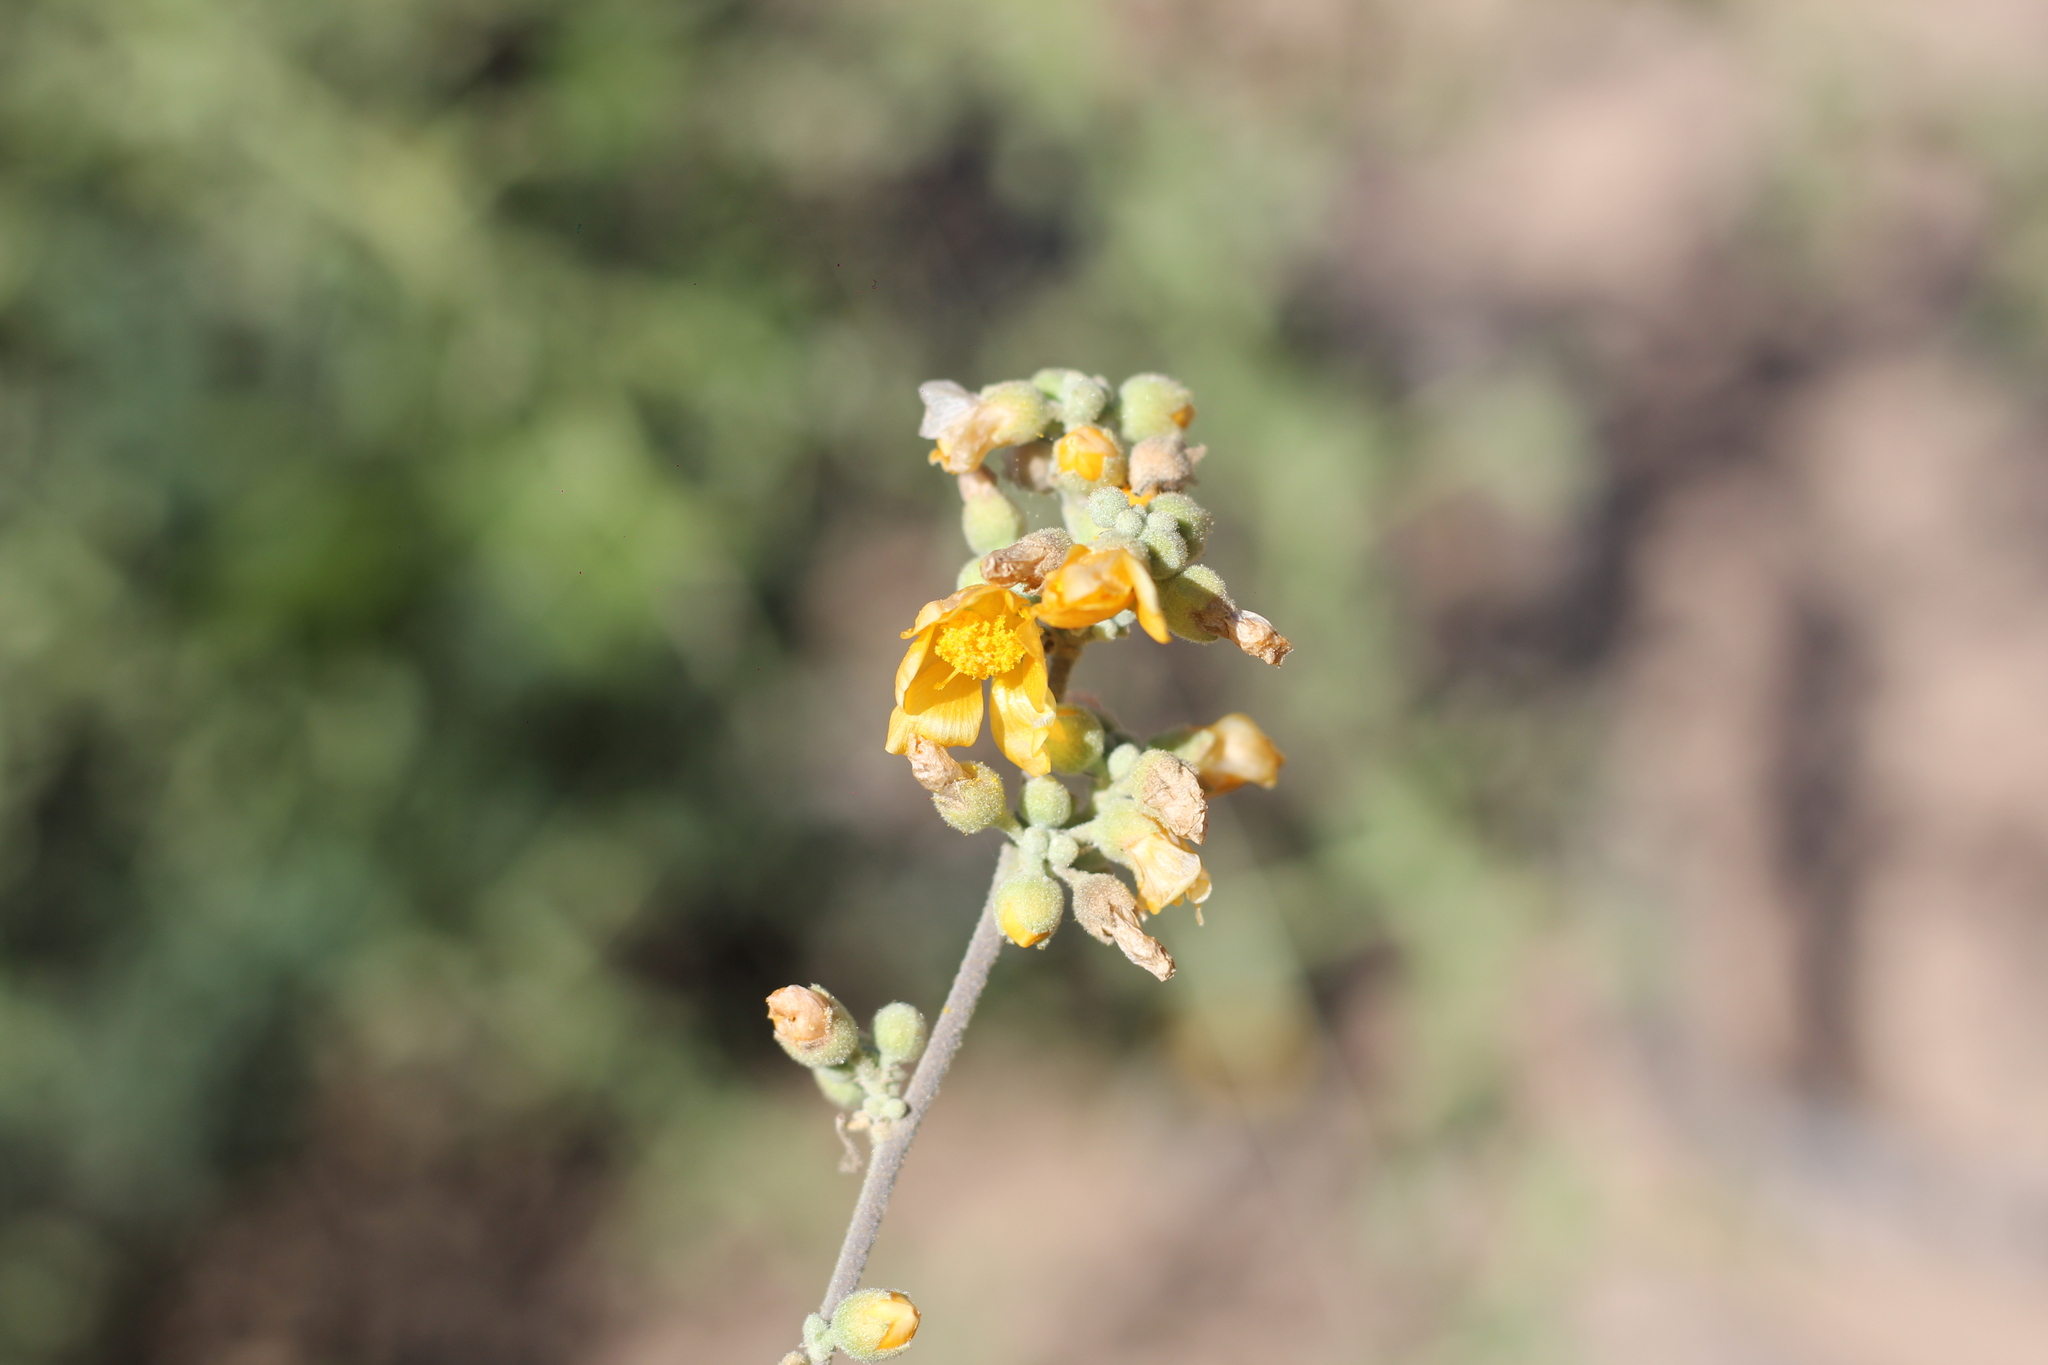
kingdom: Plantae
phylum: Tracheophyta
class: Magnoliopsida
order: Malvales
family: Malvaceae
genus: Wissadula
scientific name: Wissadula densiflora
